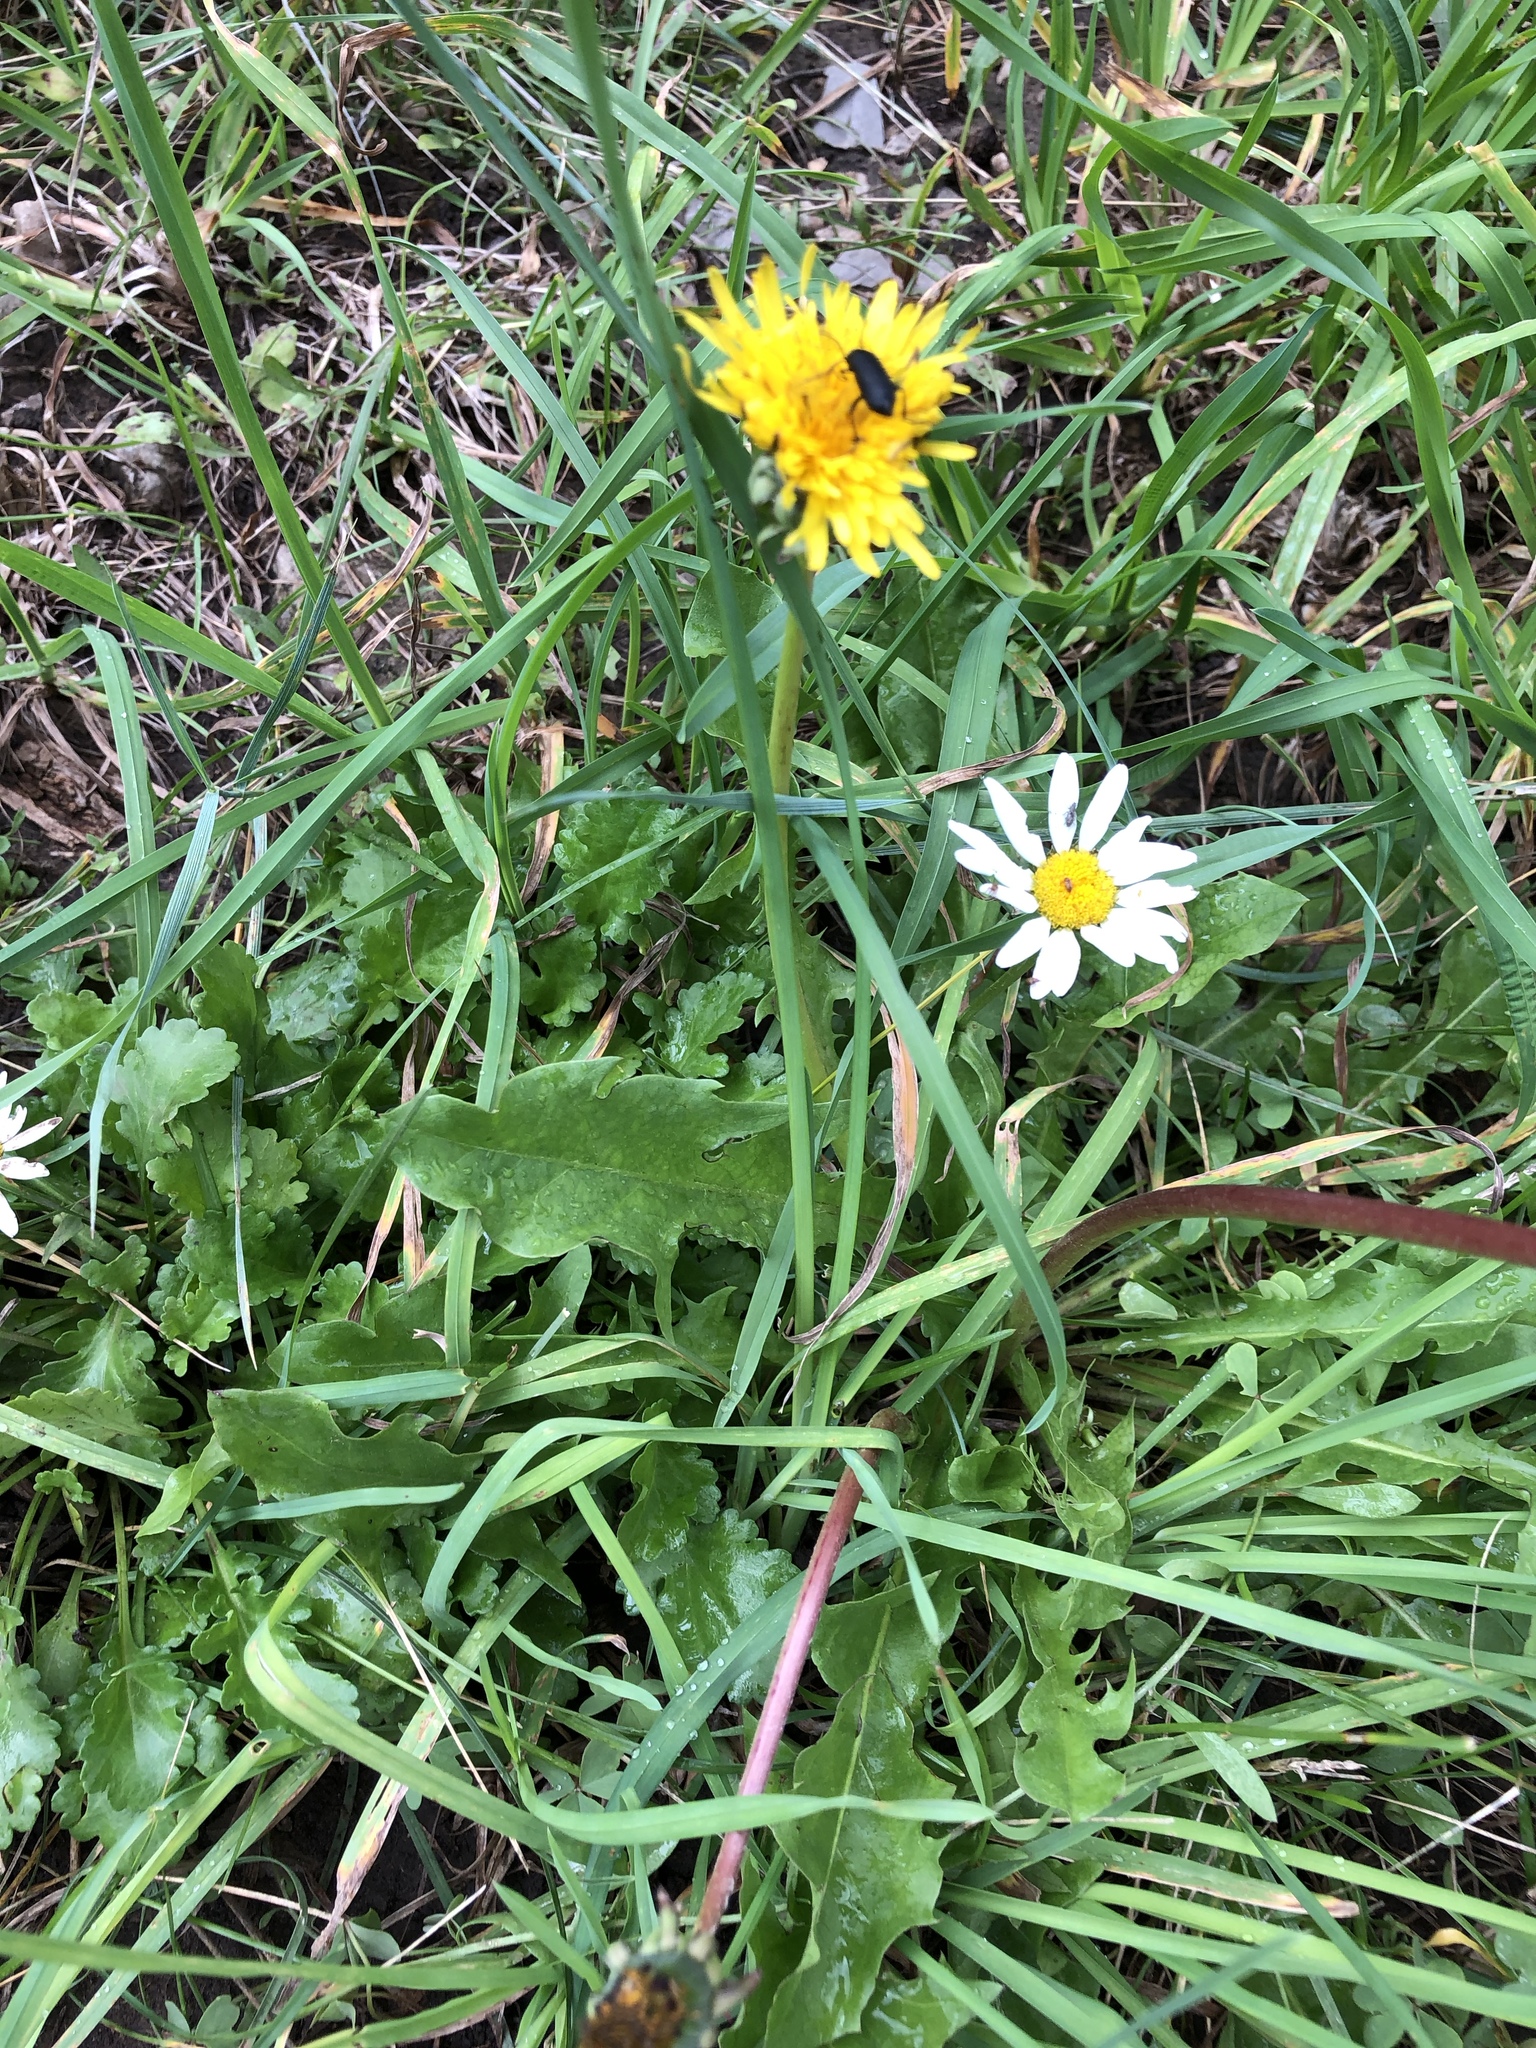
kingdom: Plantae
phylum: Tracheophyta
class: Magnoliopsida
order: Asterales
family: Asteraceae
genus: Taraxacum
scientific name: Taraxacum officinale
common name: Common dandelion
